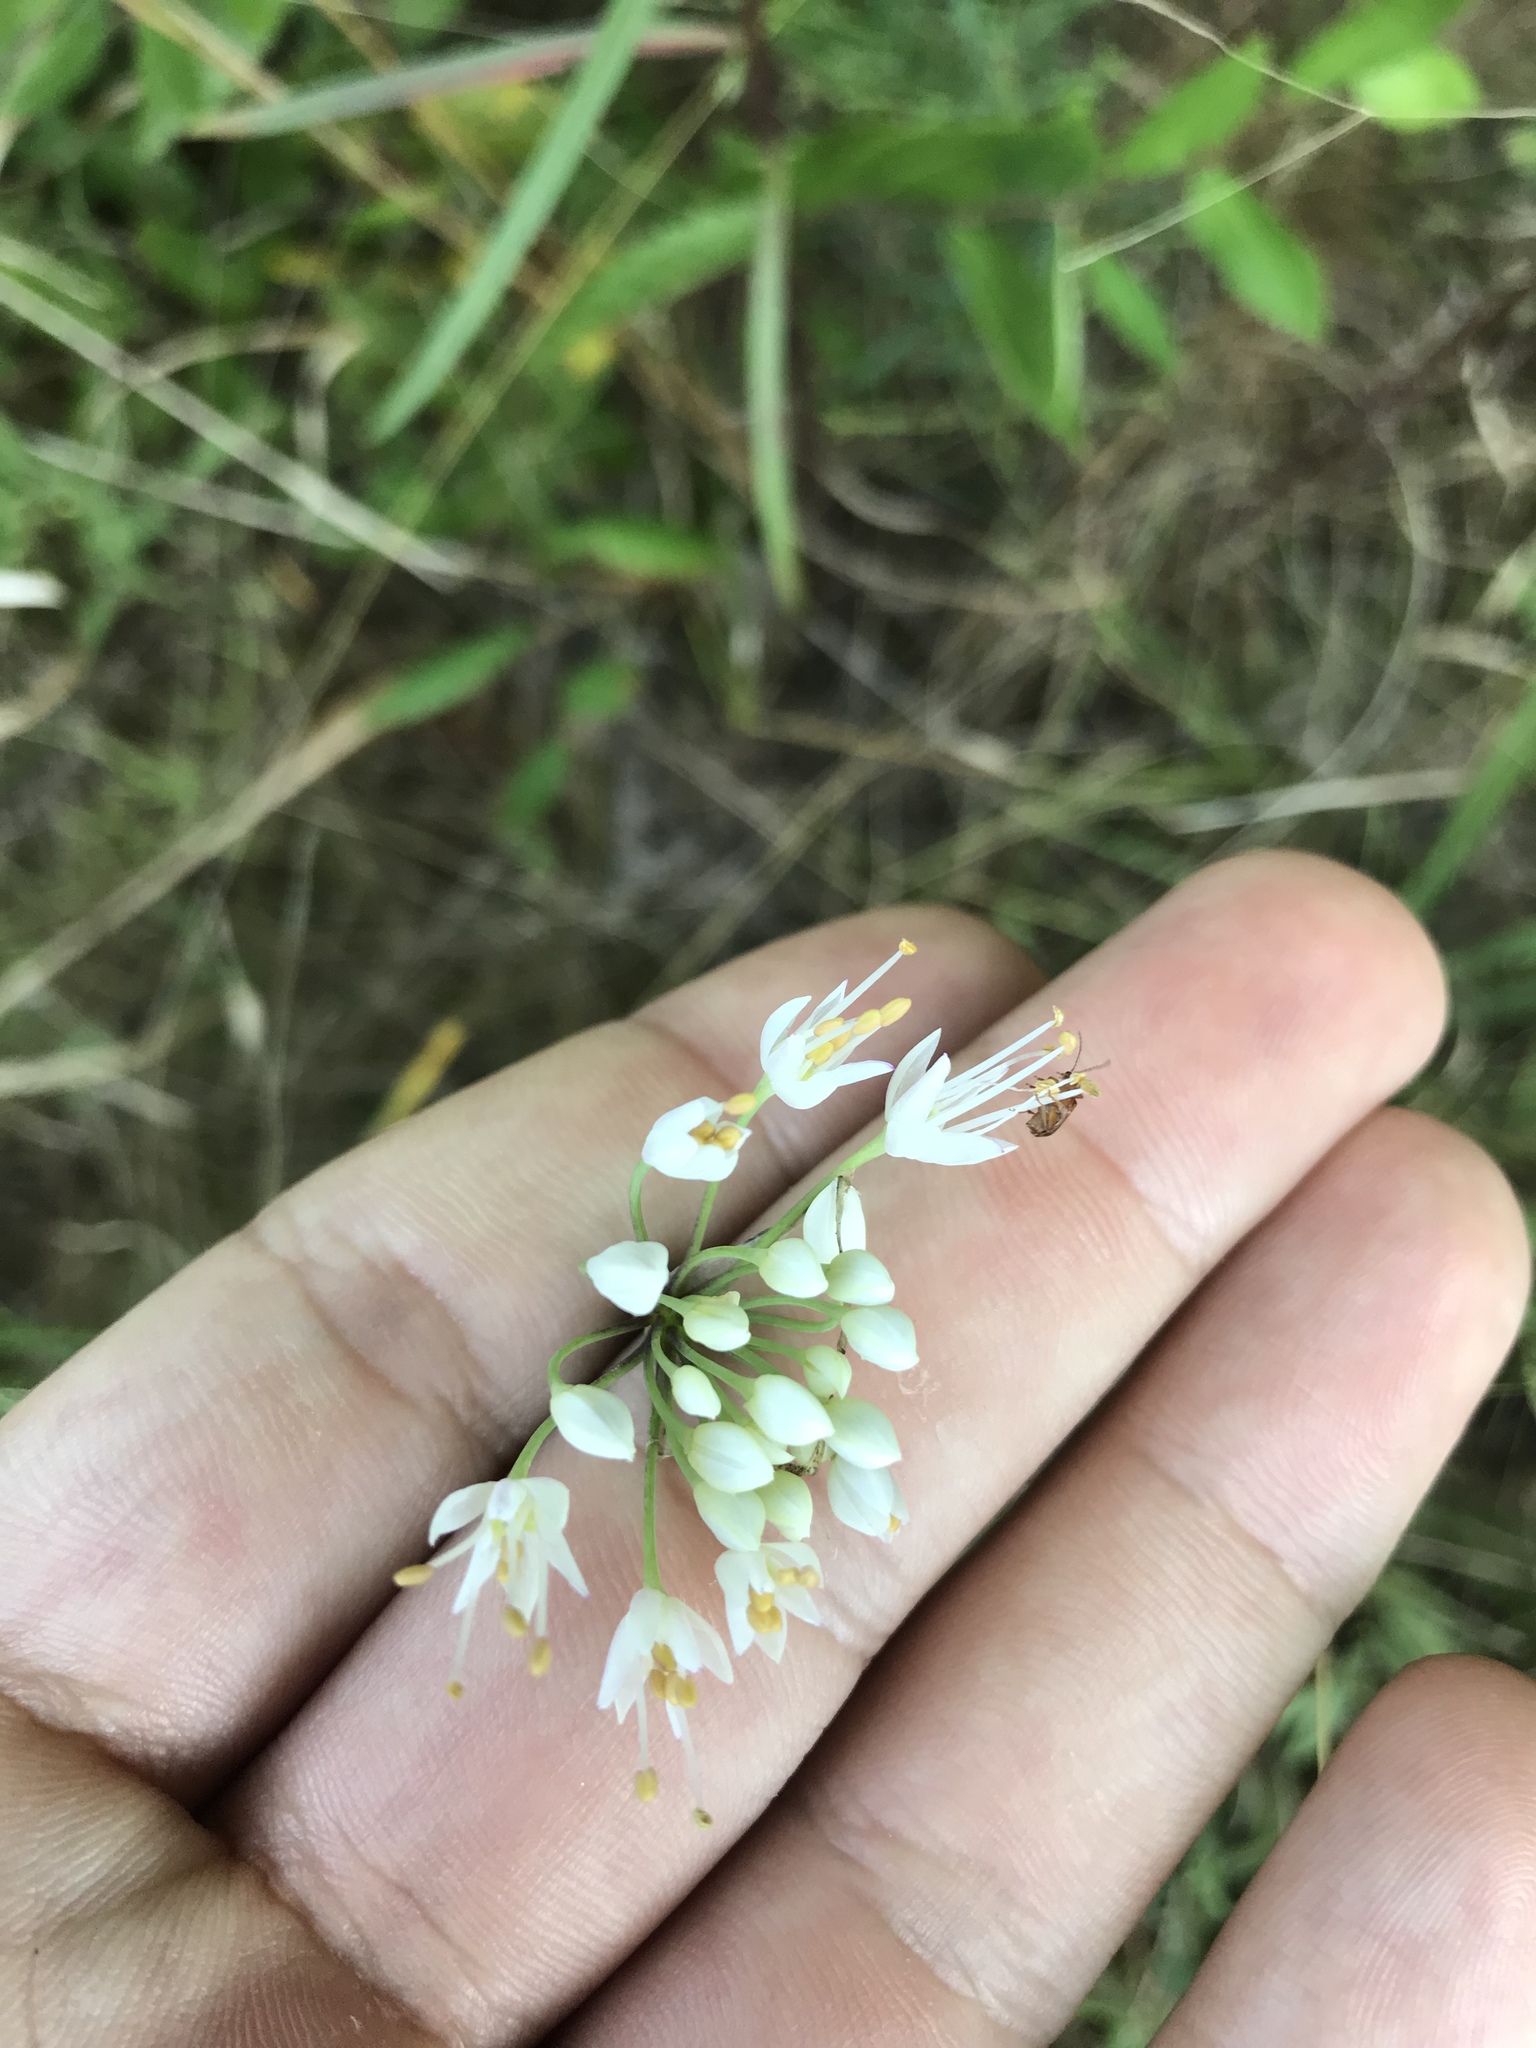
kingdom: Plantae
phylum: Tracheophyta
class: Liliopsida
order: Asparagales
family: Amaryllidaceae
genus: Allium
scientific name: Allium cernuum
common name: Nodding onion
